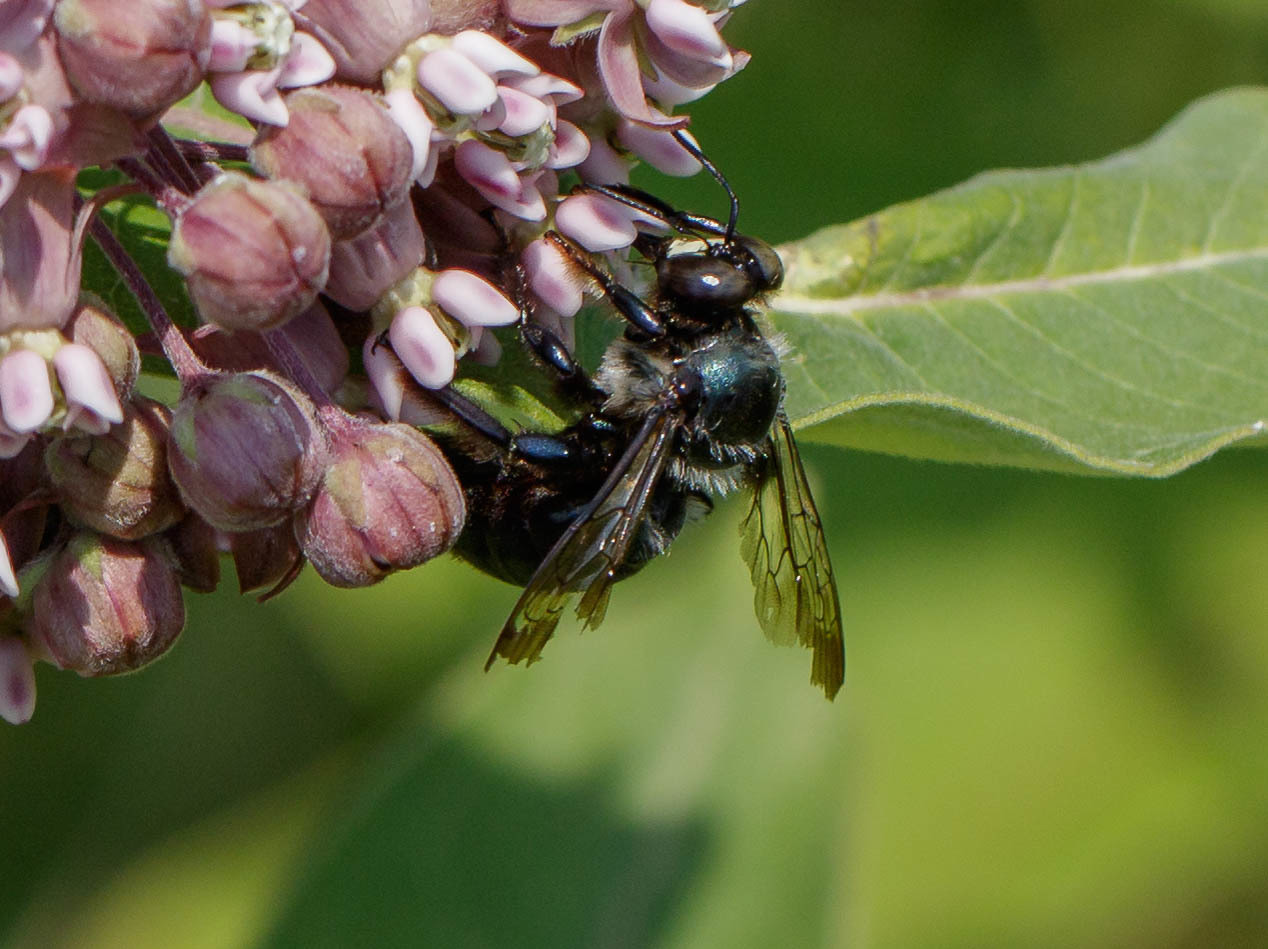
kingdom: Animalia
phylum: Arthropoda
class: Insecta
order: Hymenoptera
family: Apidae
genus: Xylocopa
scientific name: Xylocopa virginica
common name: Carpenter bee
